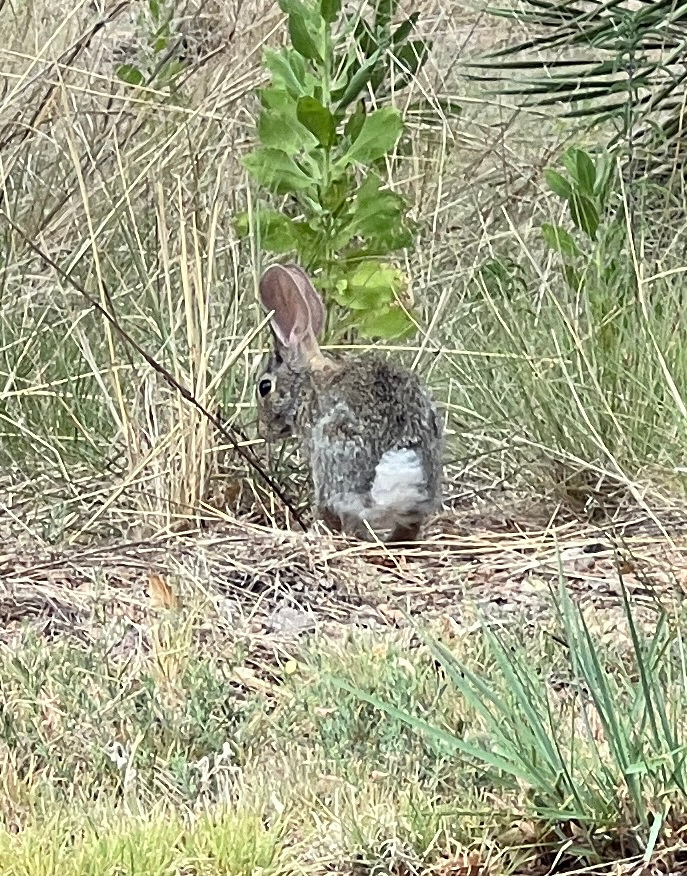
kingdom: Animalia
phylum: Chordata
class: Mammalia
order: Lagomorpha
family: Leporidae
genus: Sylvilagus
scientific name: Sylvilagus audubonii
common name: Desert cottontail
